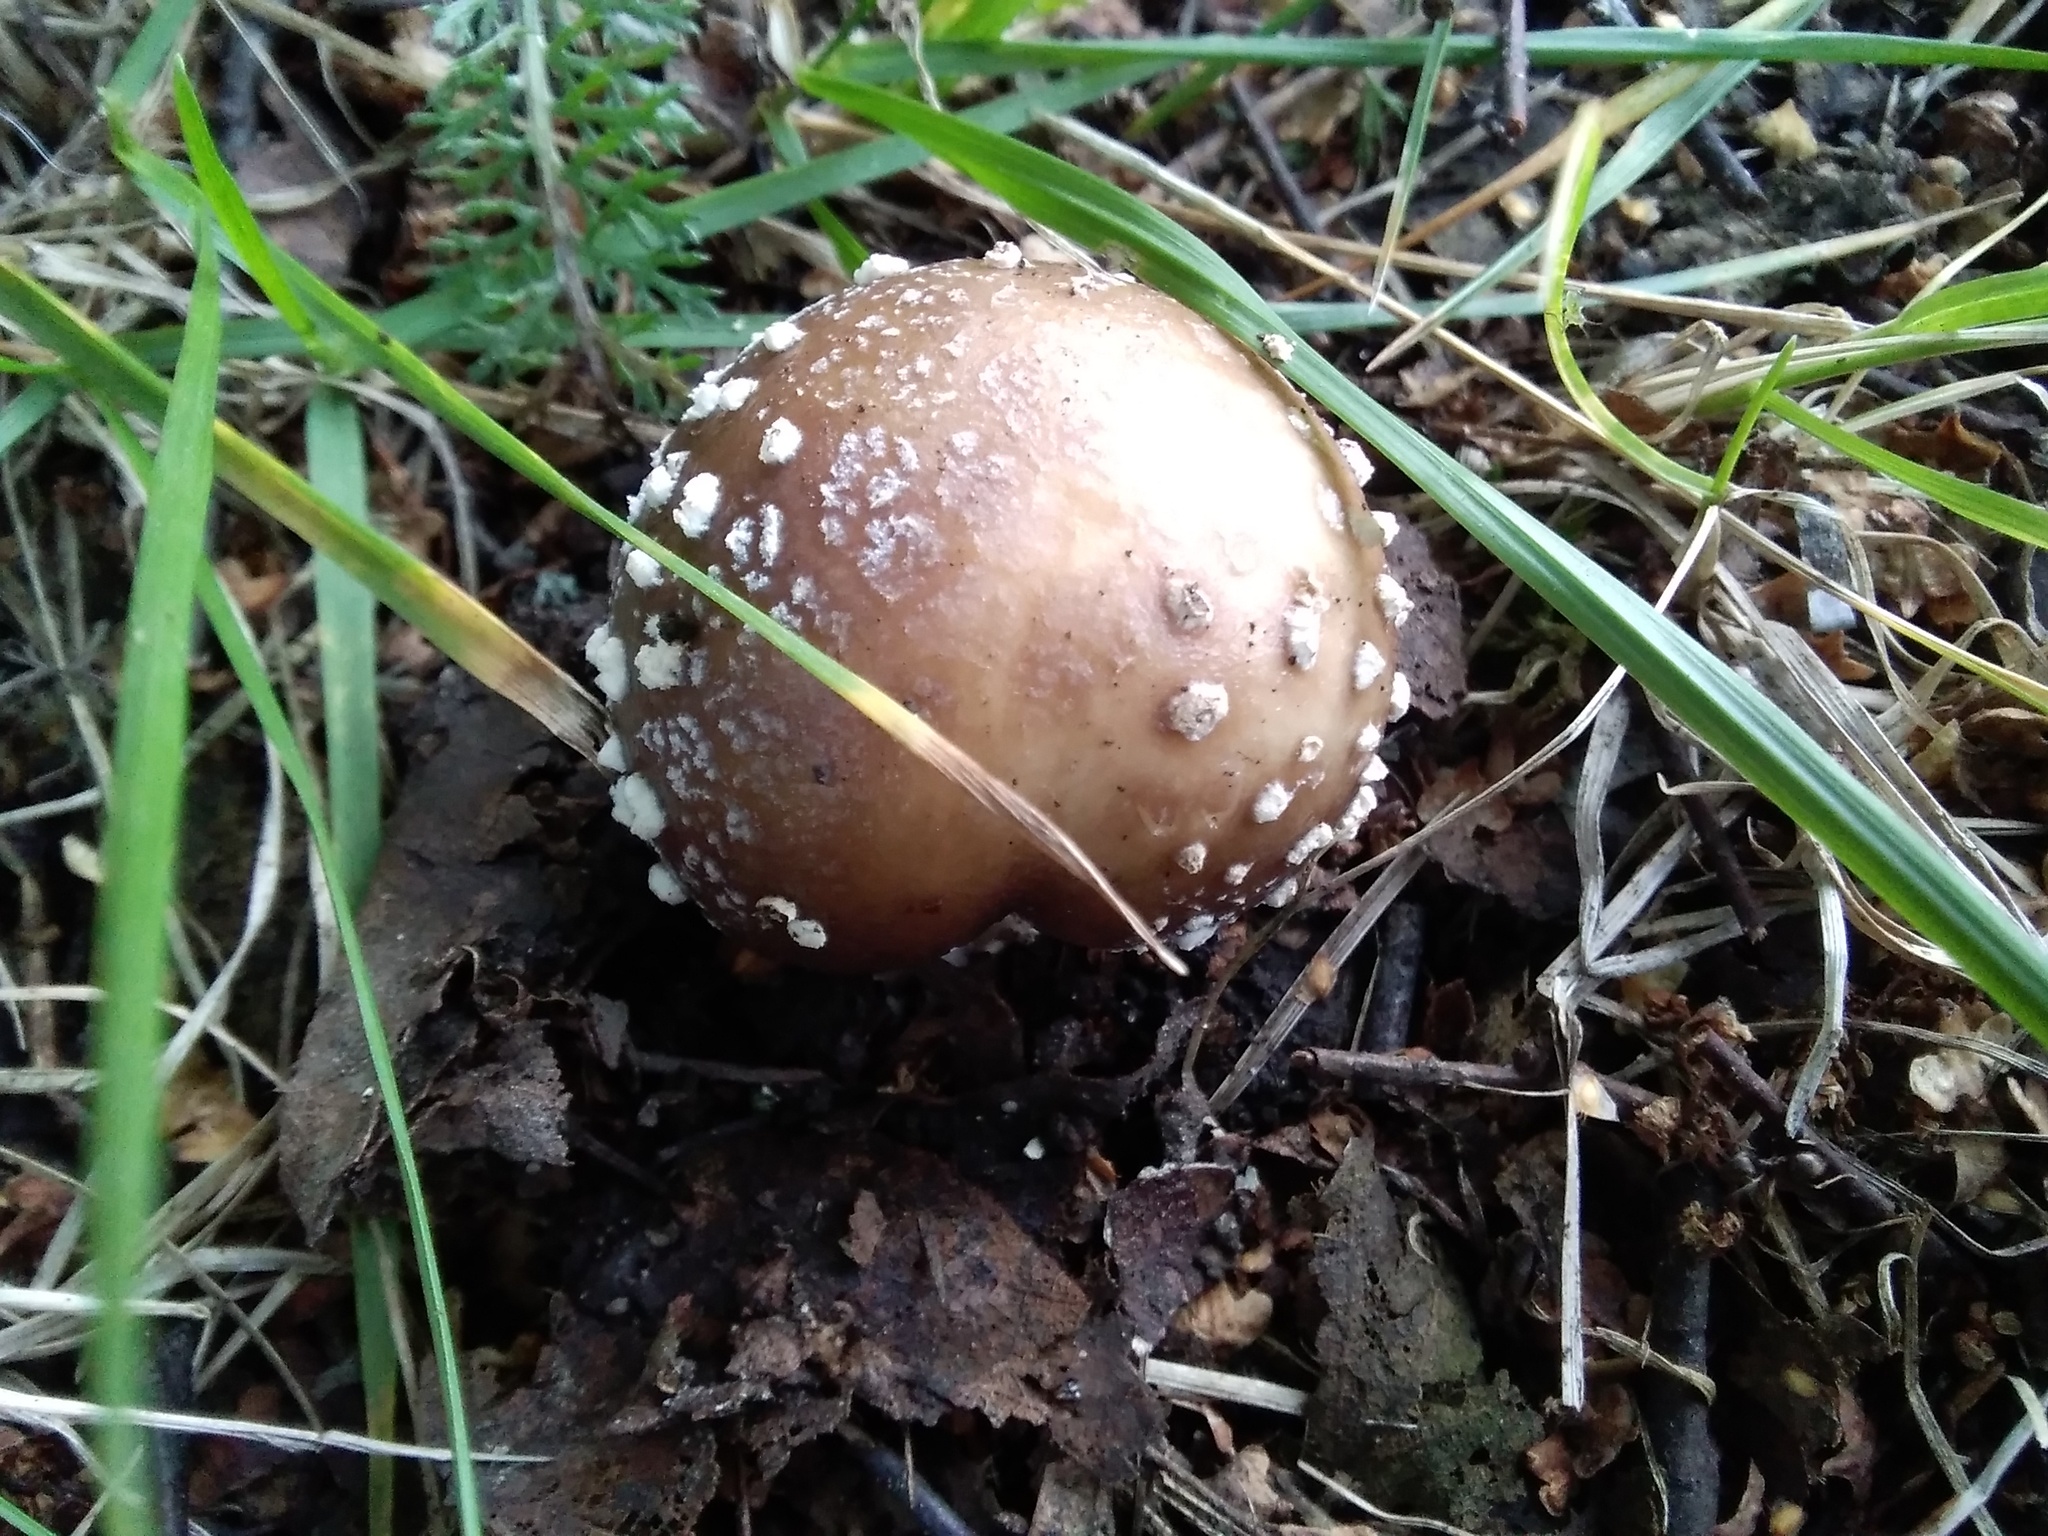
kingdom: Fungi
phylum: Basidiomycota
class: Agaricomycetes
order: Agaricales
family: Amanitaceae
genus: Amanita
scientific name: Amanita pantherina
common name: Panthercap
